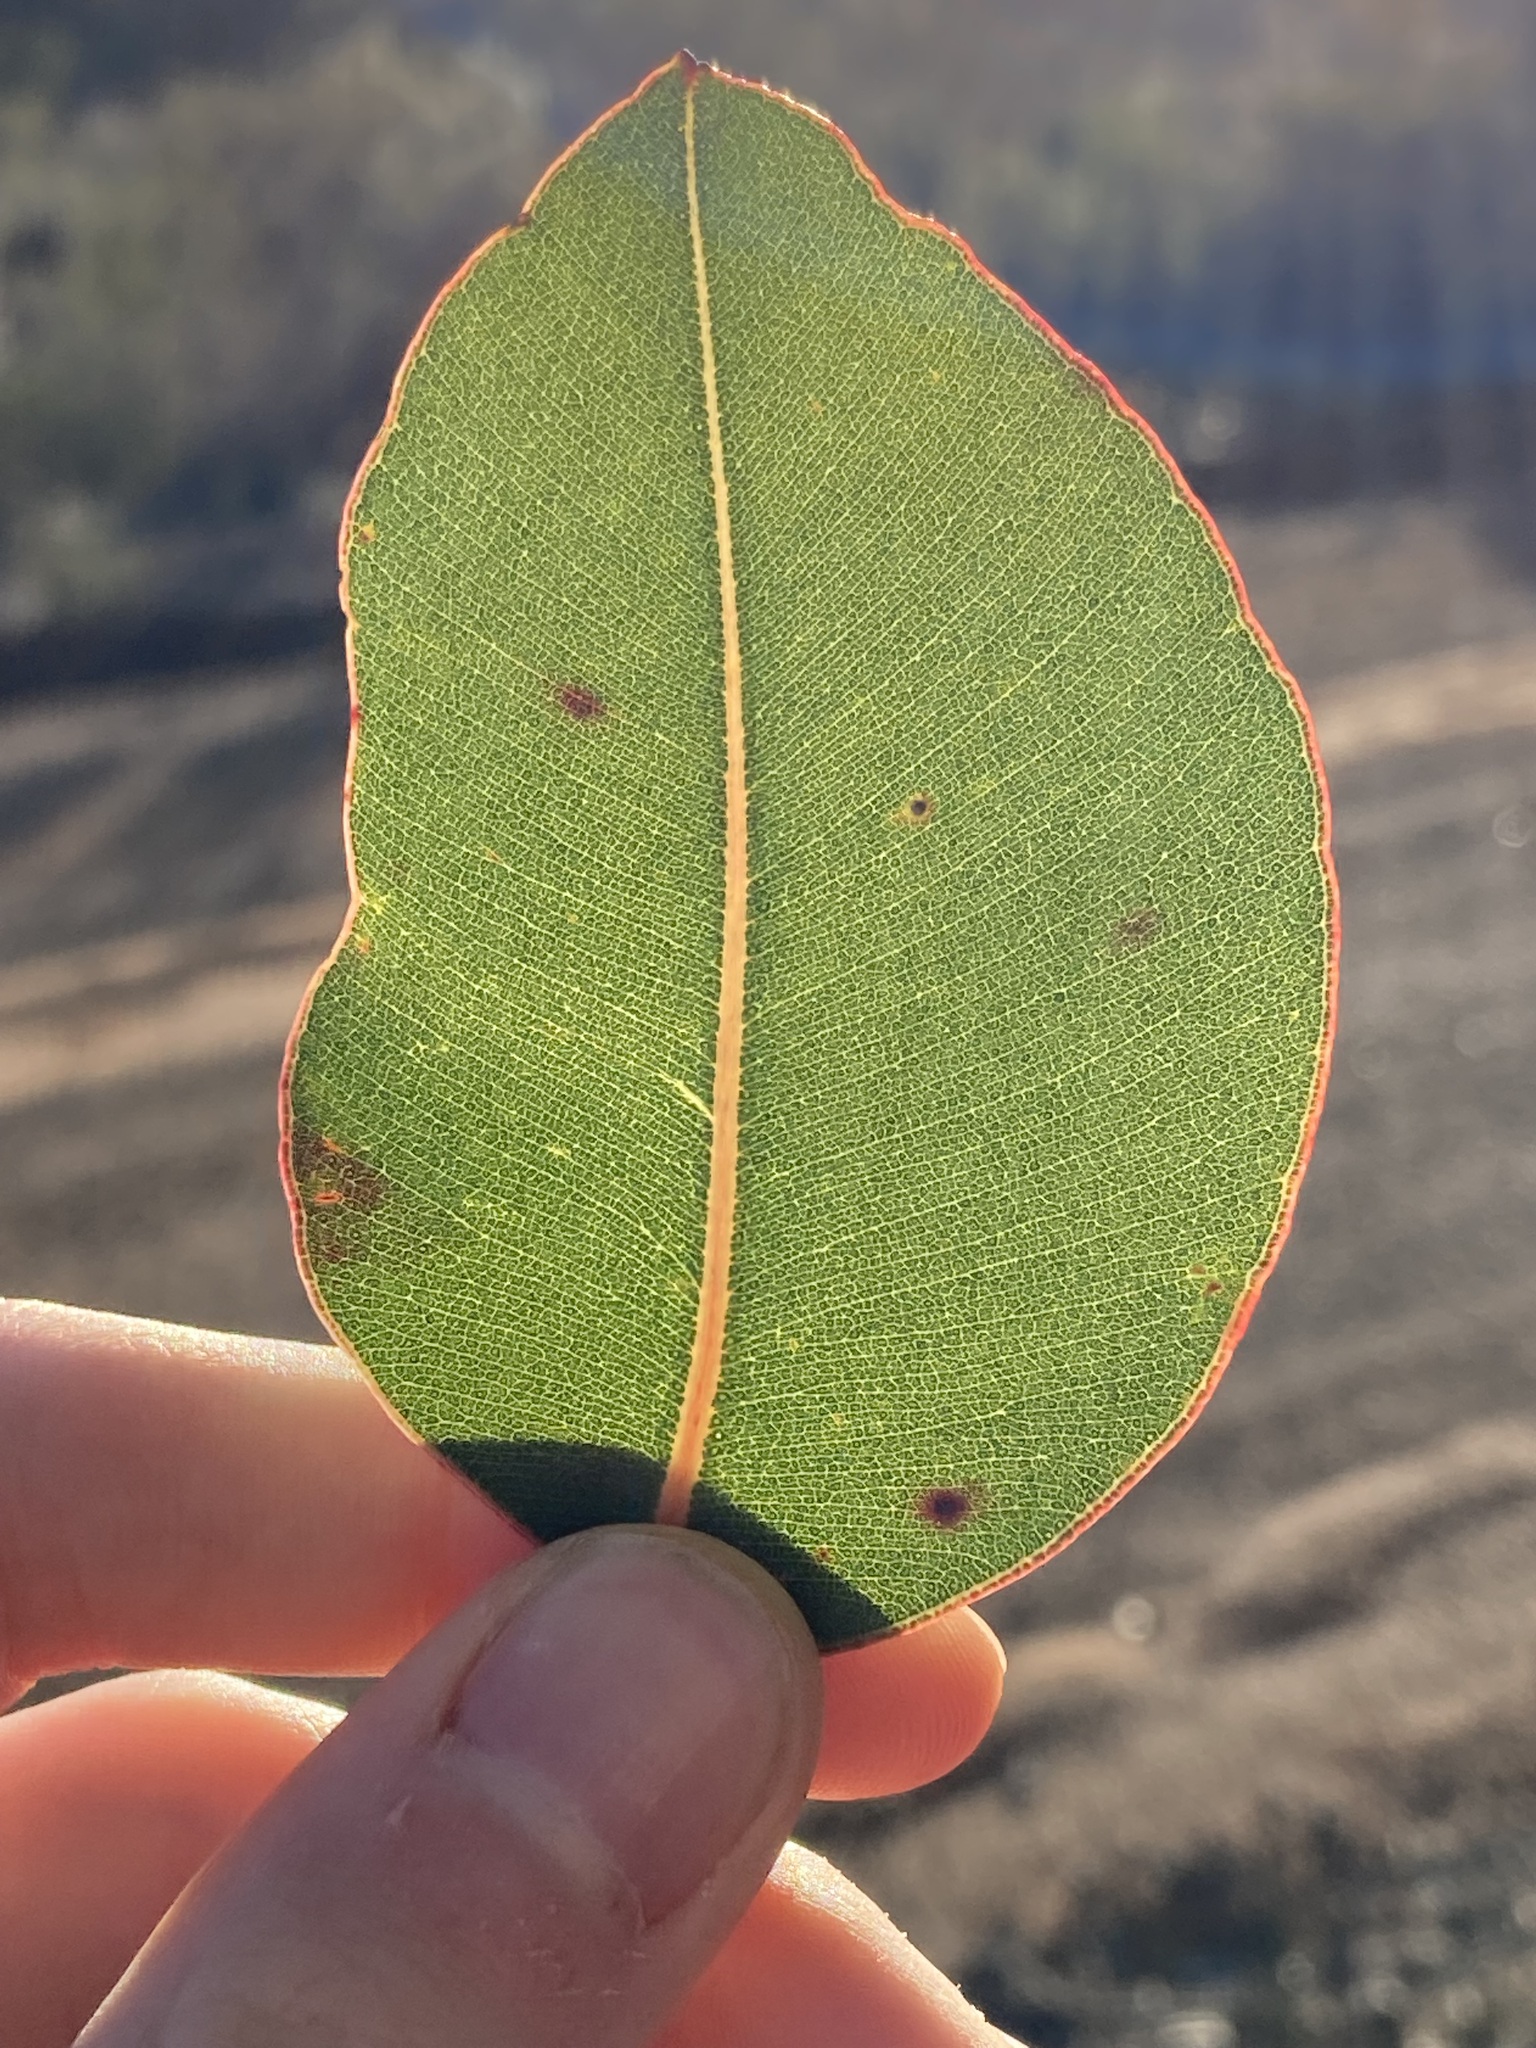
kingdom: Plantae
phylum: Tracheophyta
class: Magnoliopsida
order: Myrtales
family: Myrtaceae
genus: Corymbia
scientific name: Corymbia calophylla
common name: Marri
